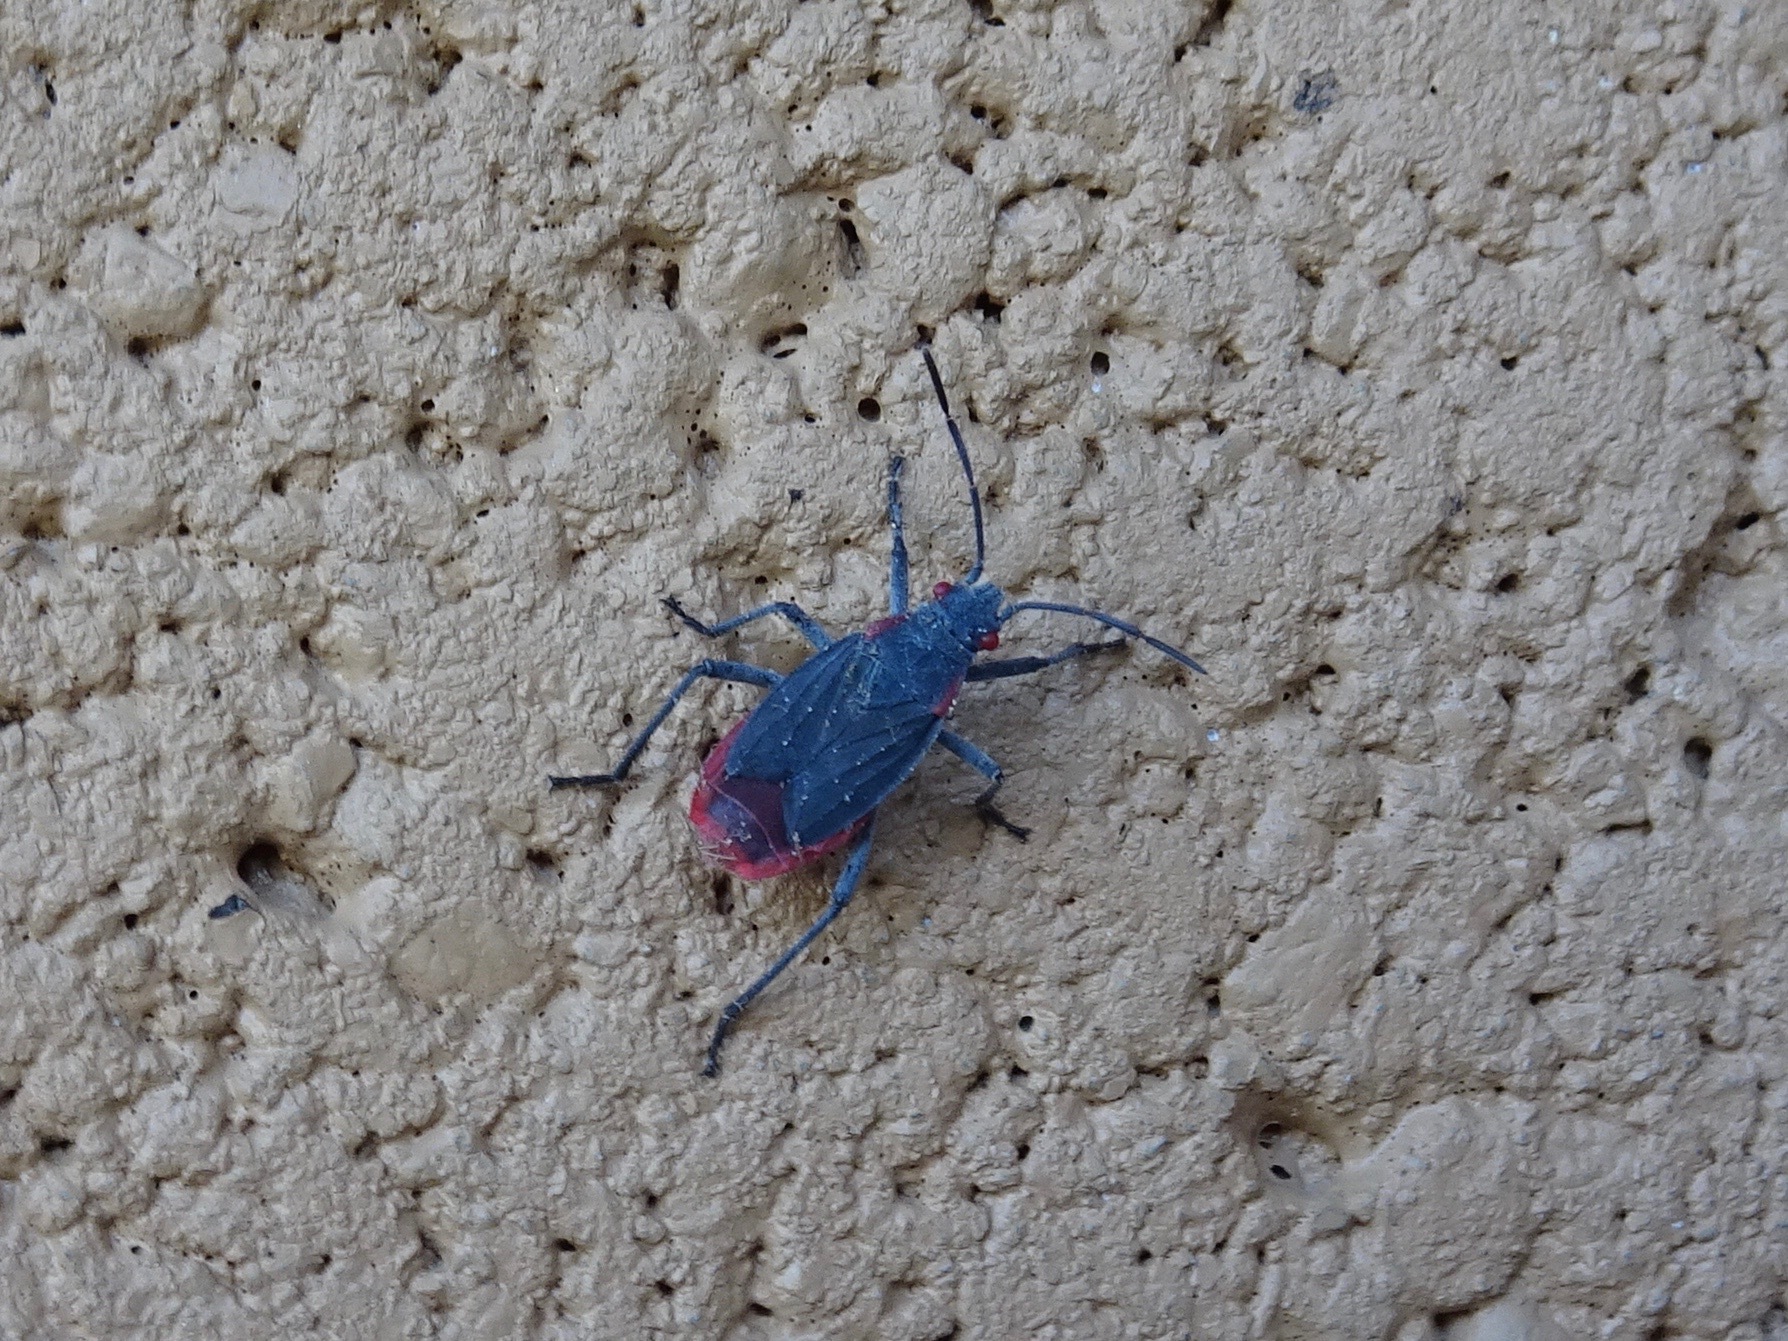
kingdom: Animalia
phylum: Arthropoda
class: Insecta
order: Hemiptera
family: Rhopalidae
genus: Jadera
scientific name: Jadera haematoloma
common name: Red-shouldered bug
